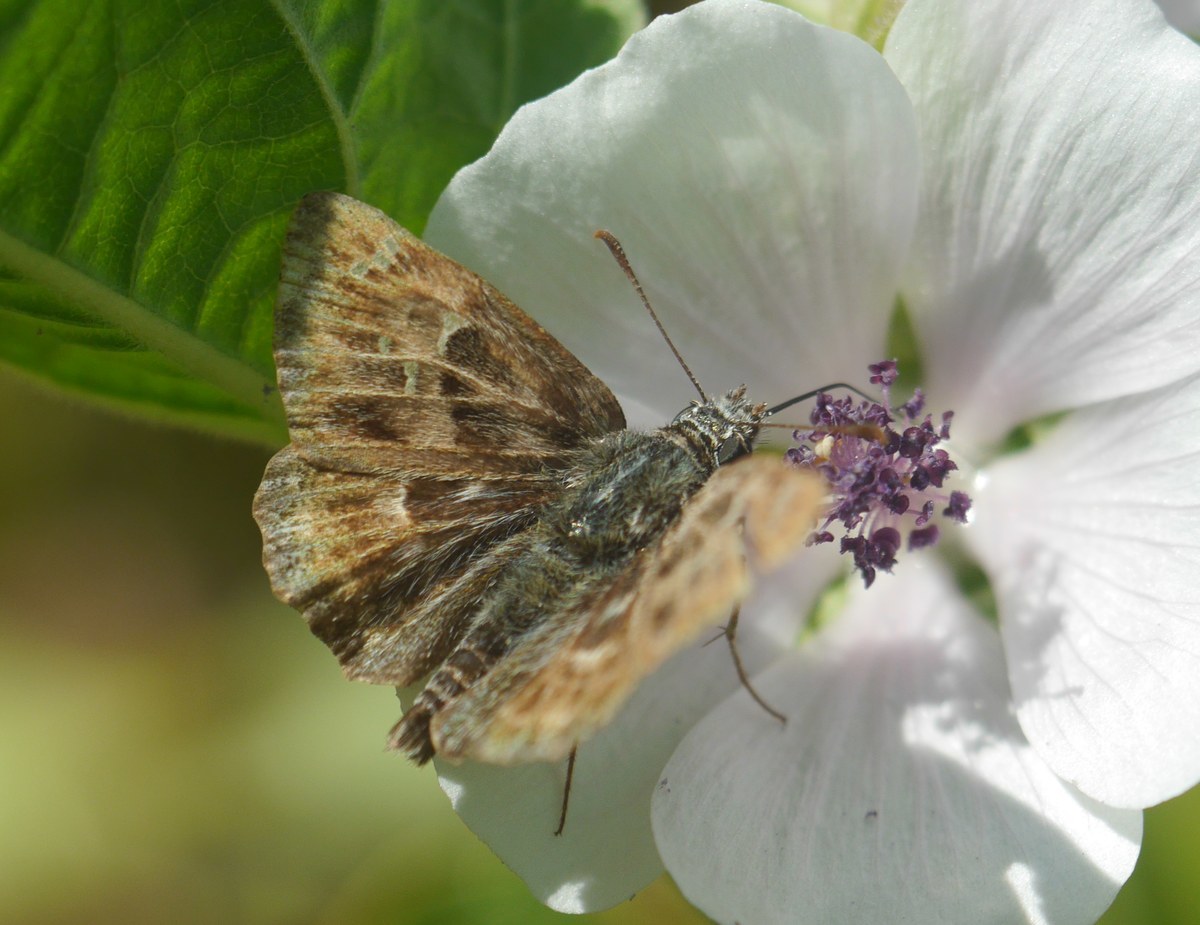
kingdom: Animalia
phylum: Arthropoda
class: Insecta
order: Lepidoptera
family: Hesperiidae
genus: Carcharodus
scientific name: Carcharodus alceae
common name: Mallow skipper
